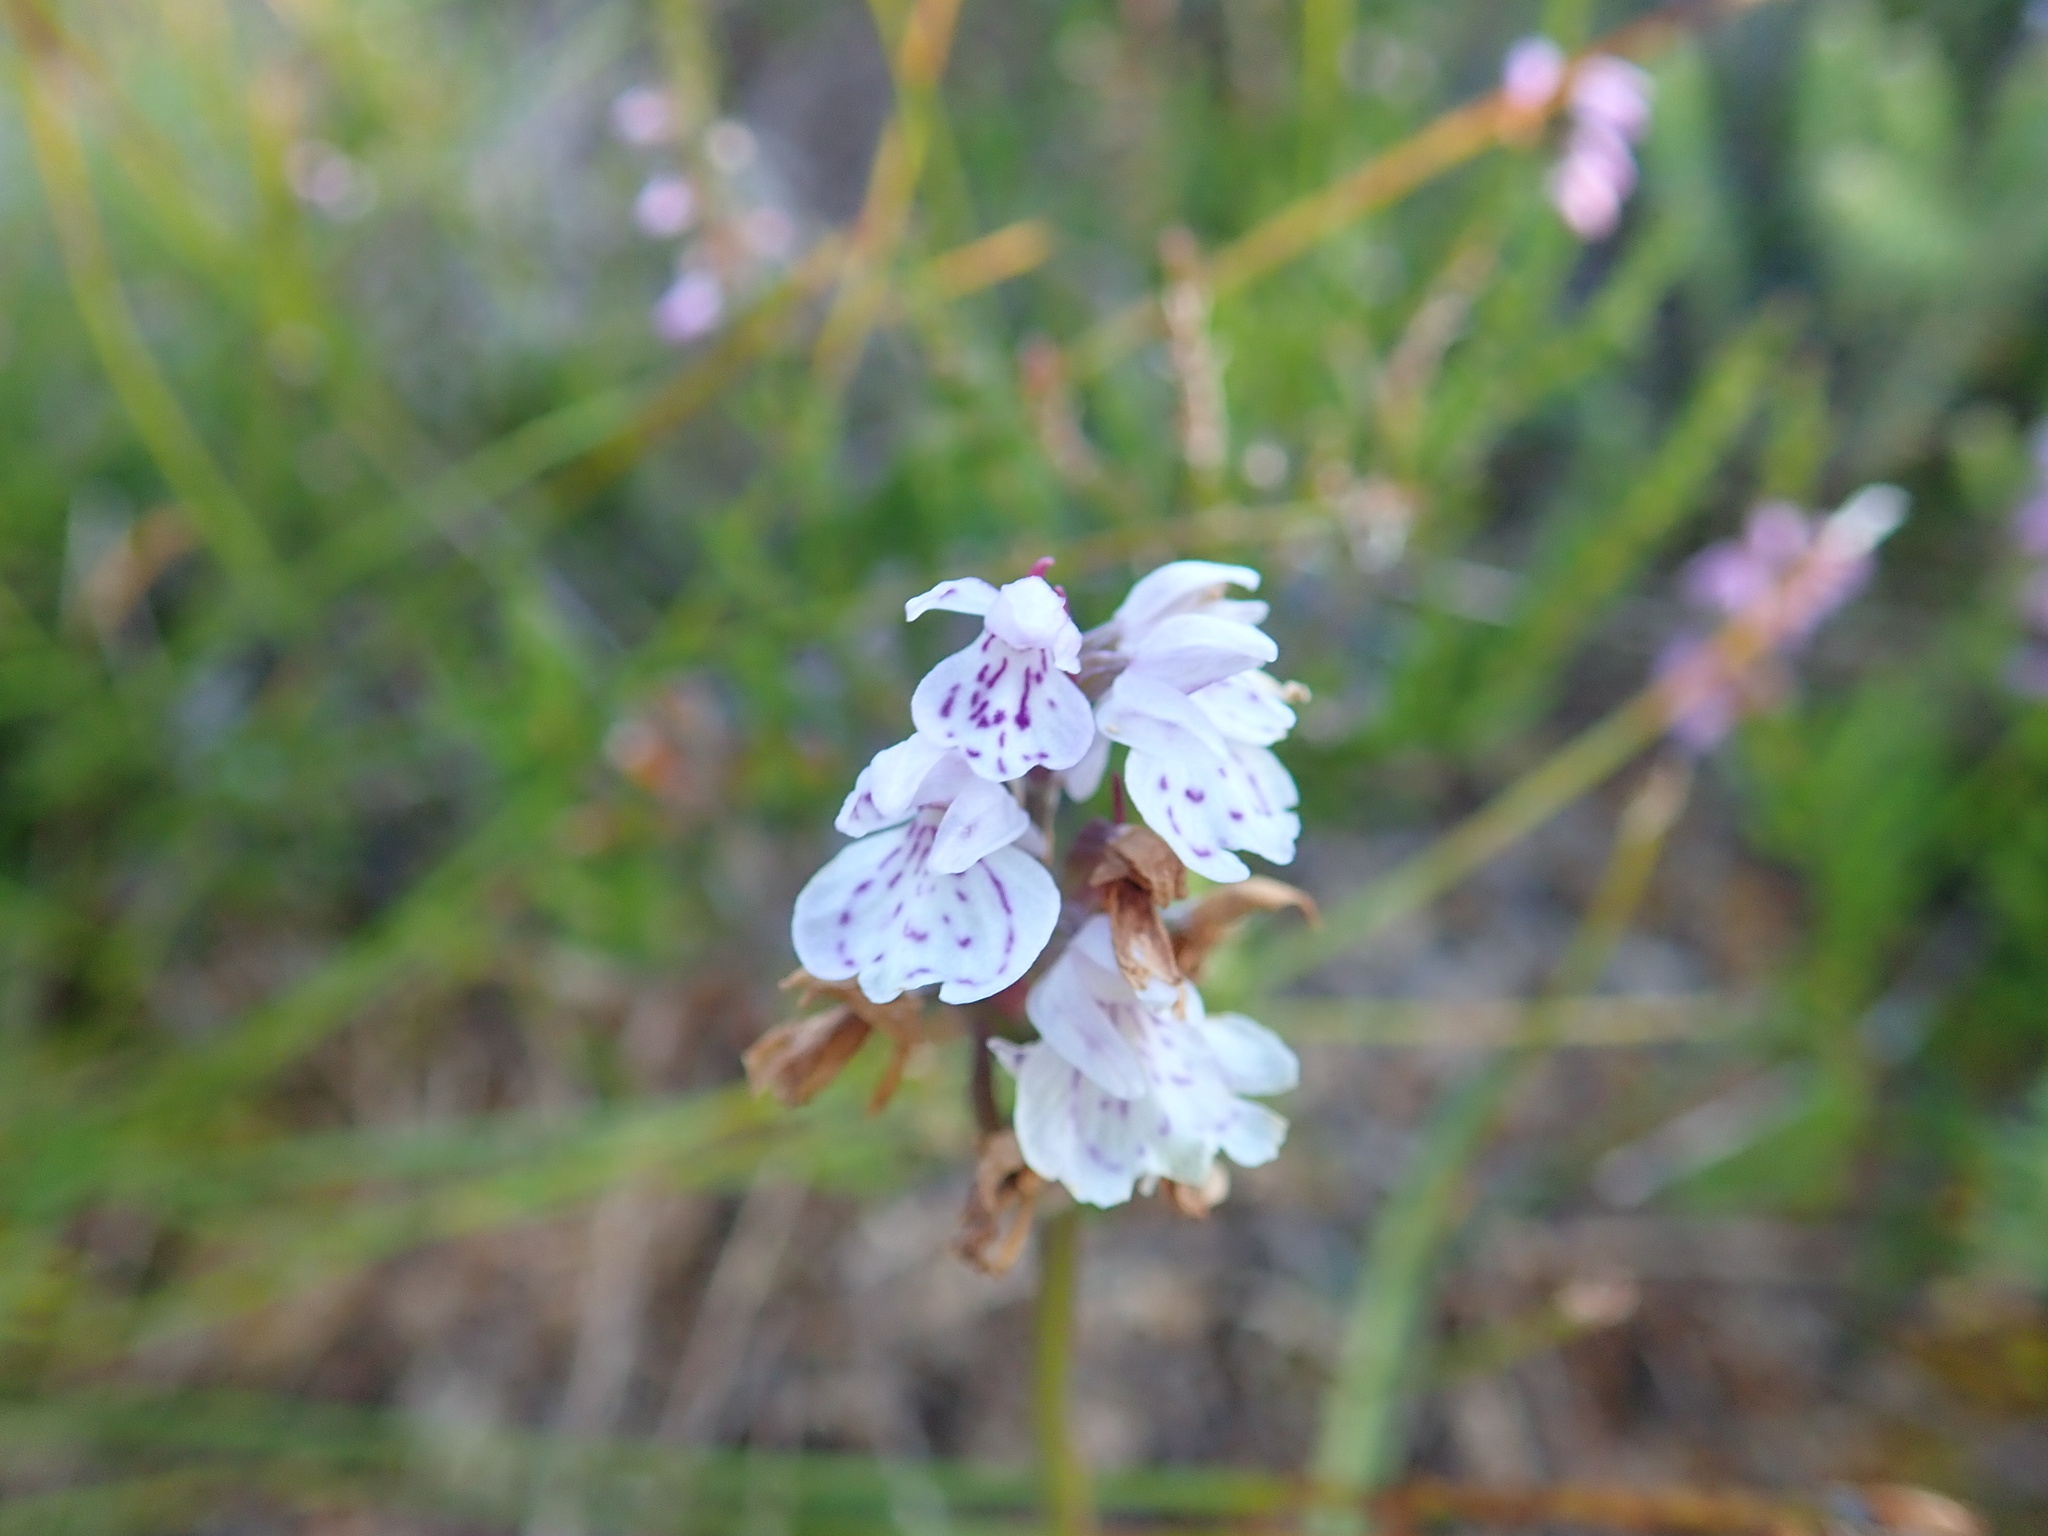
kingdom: Plantae
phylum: Tracheophyta
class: Liliopsida
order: Asparagales
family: Orchidaceae
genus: Dactylorhiza
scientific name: Dactylorhiza maculata
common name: Heath spotted-orchid
